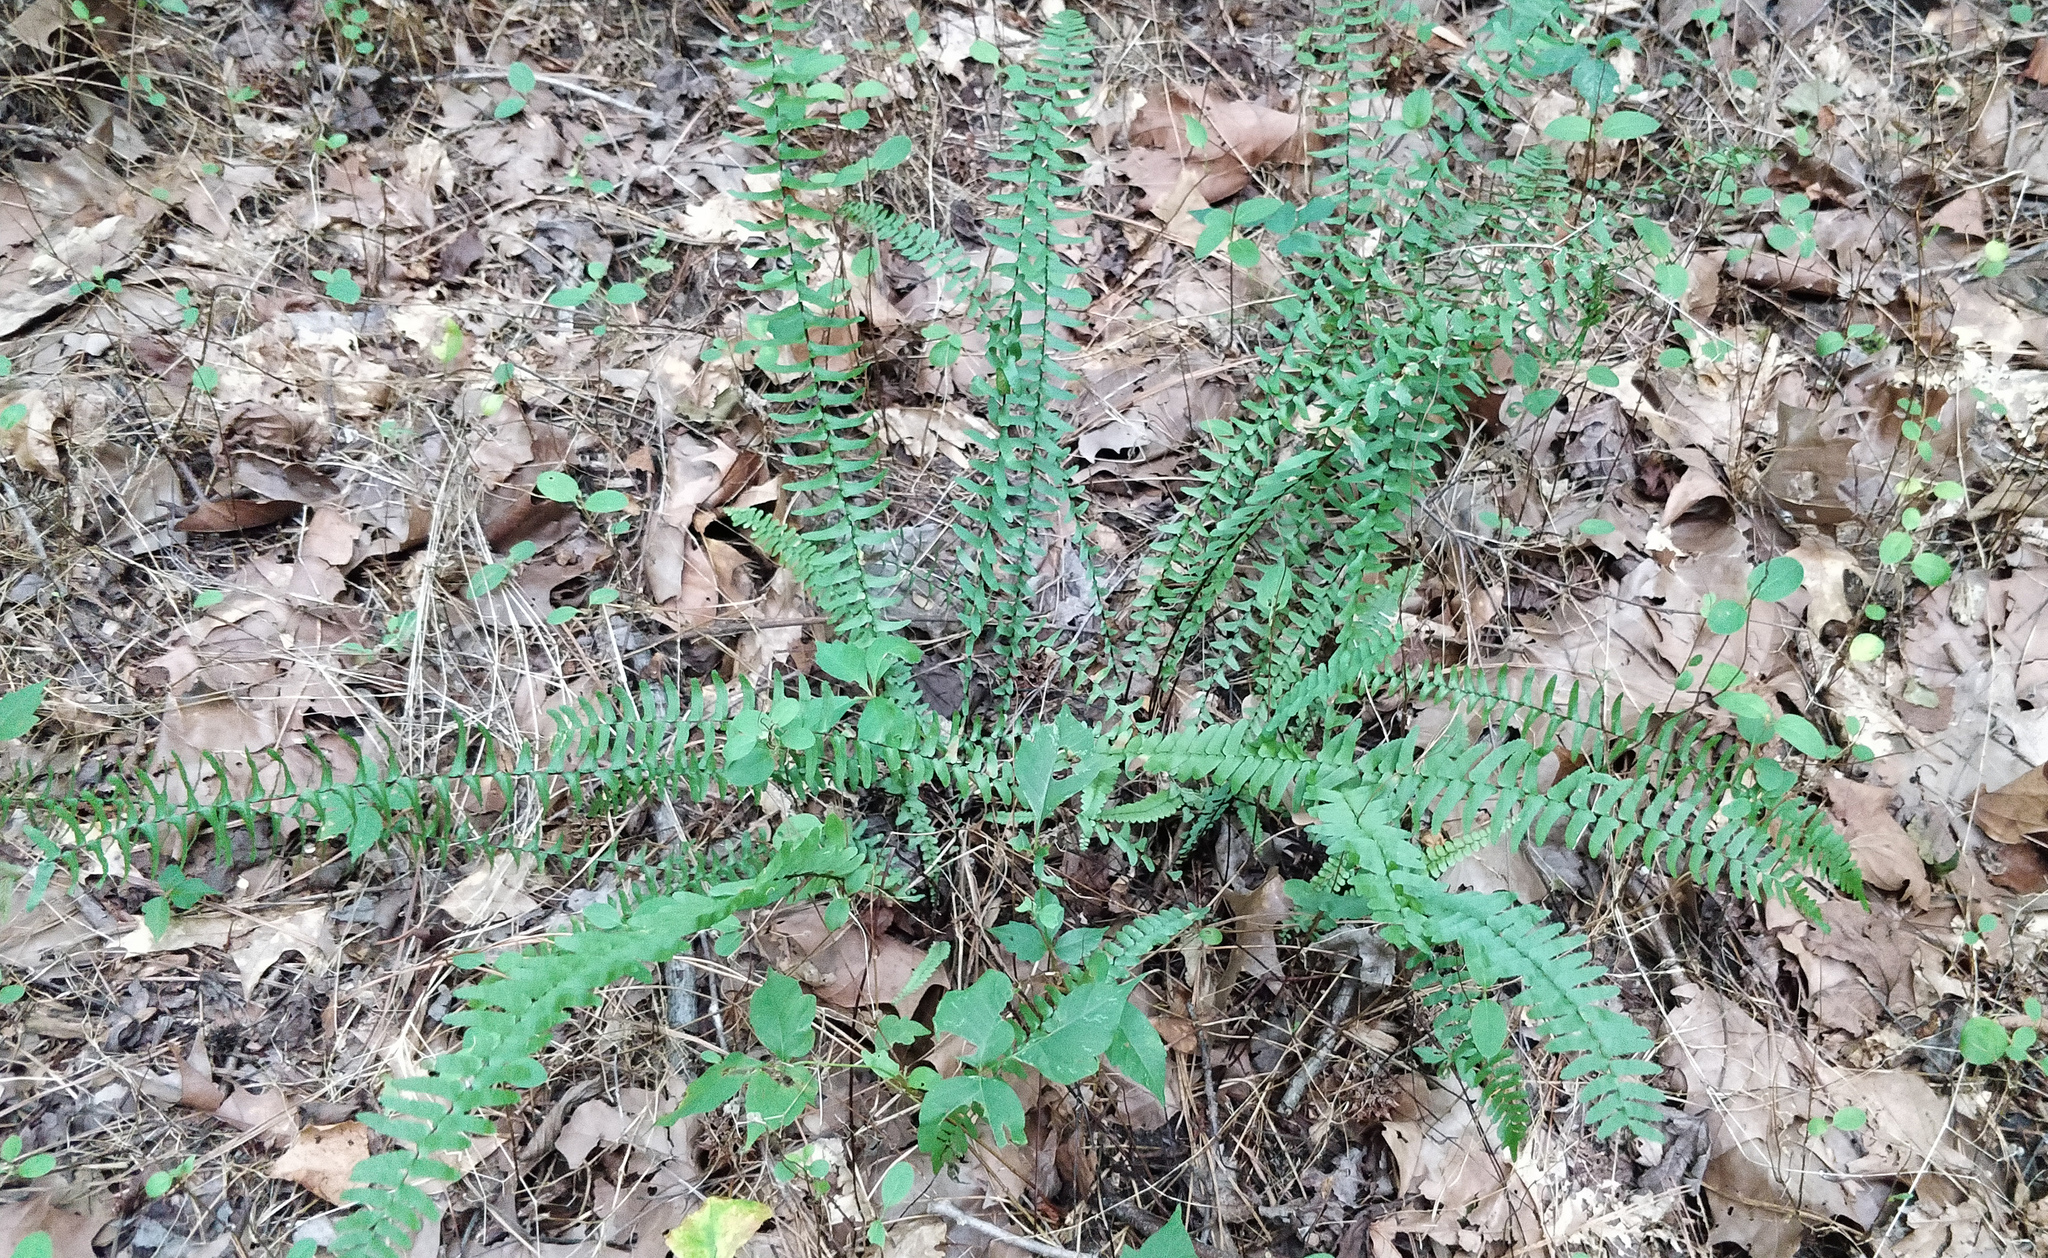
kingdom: Plantae
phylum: Tracheophyta
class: Polypodiopsida
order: Polypodiales
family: Aspleniaceae
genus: Asplenium
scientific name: Asplenium platyneuron
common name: Ebony spleenwort
